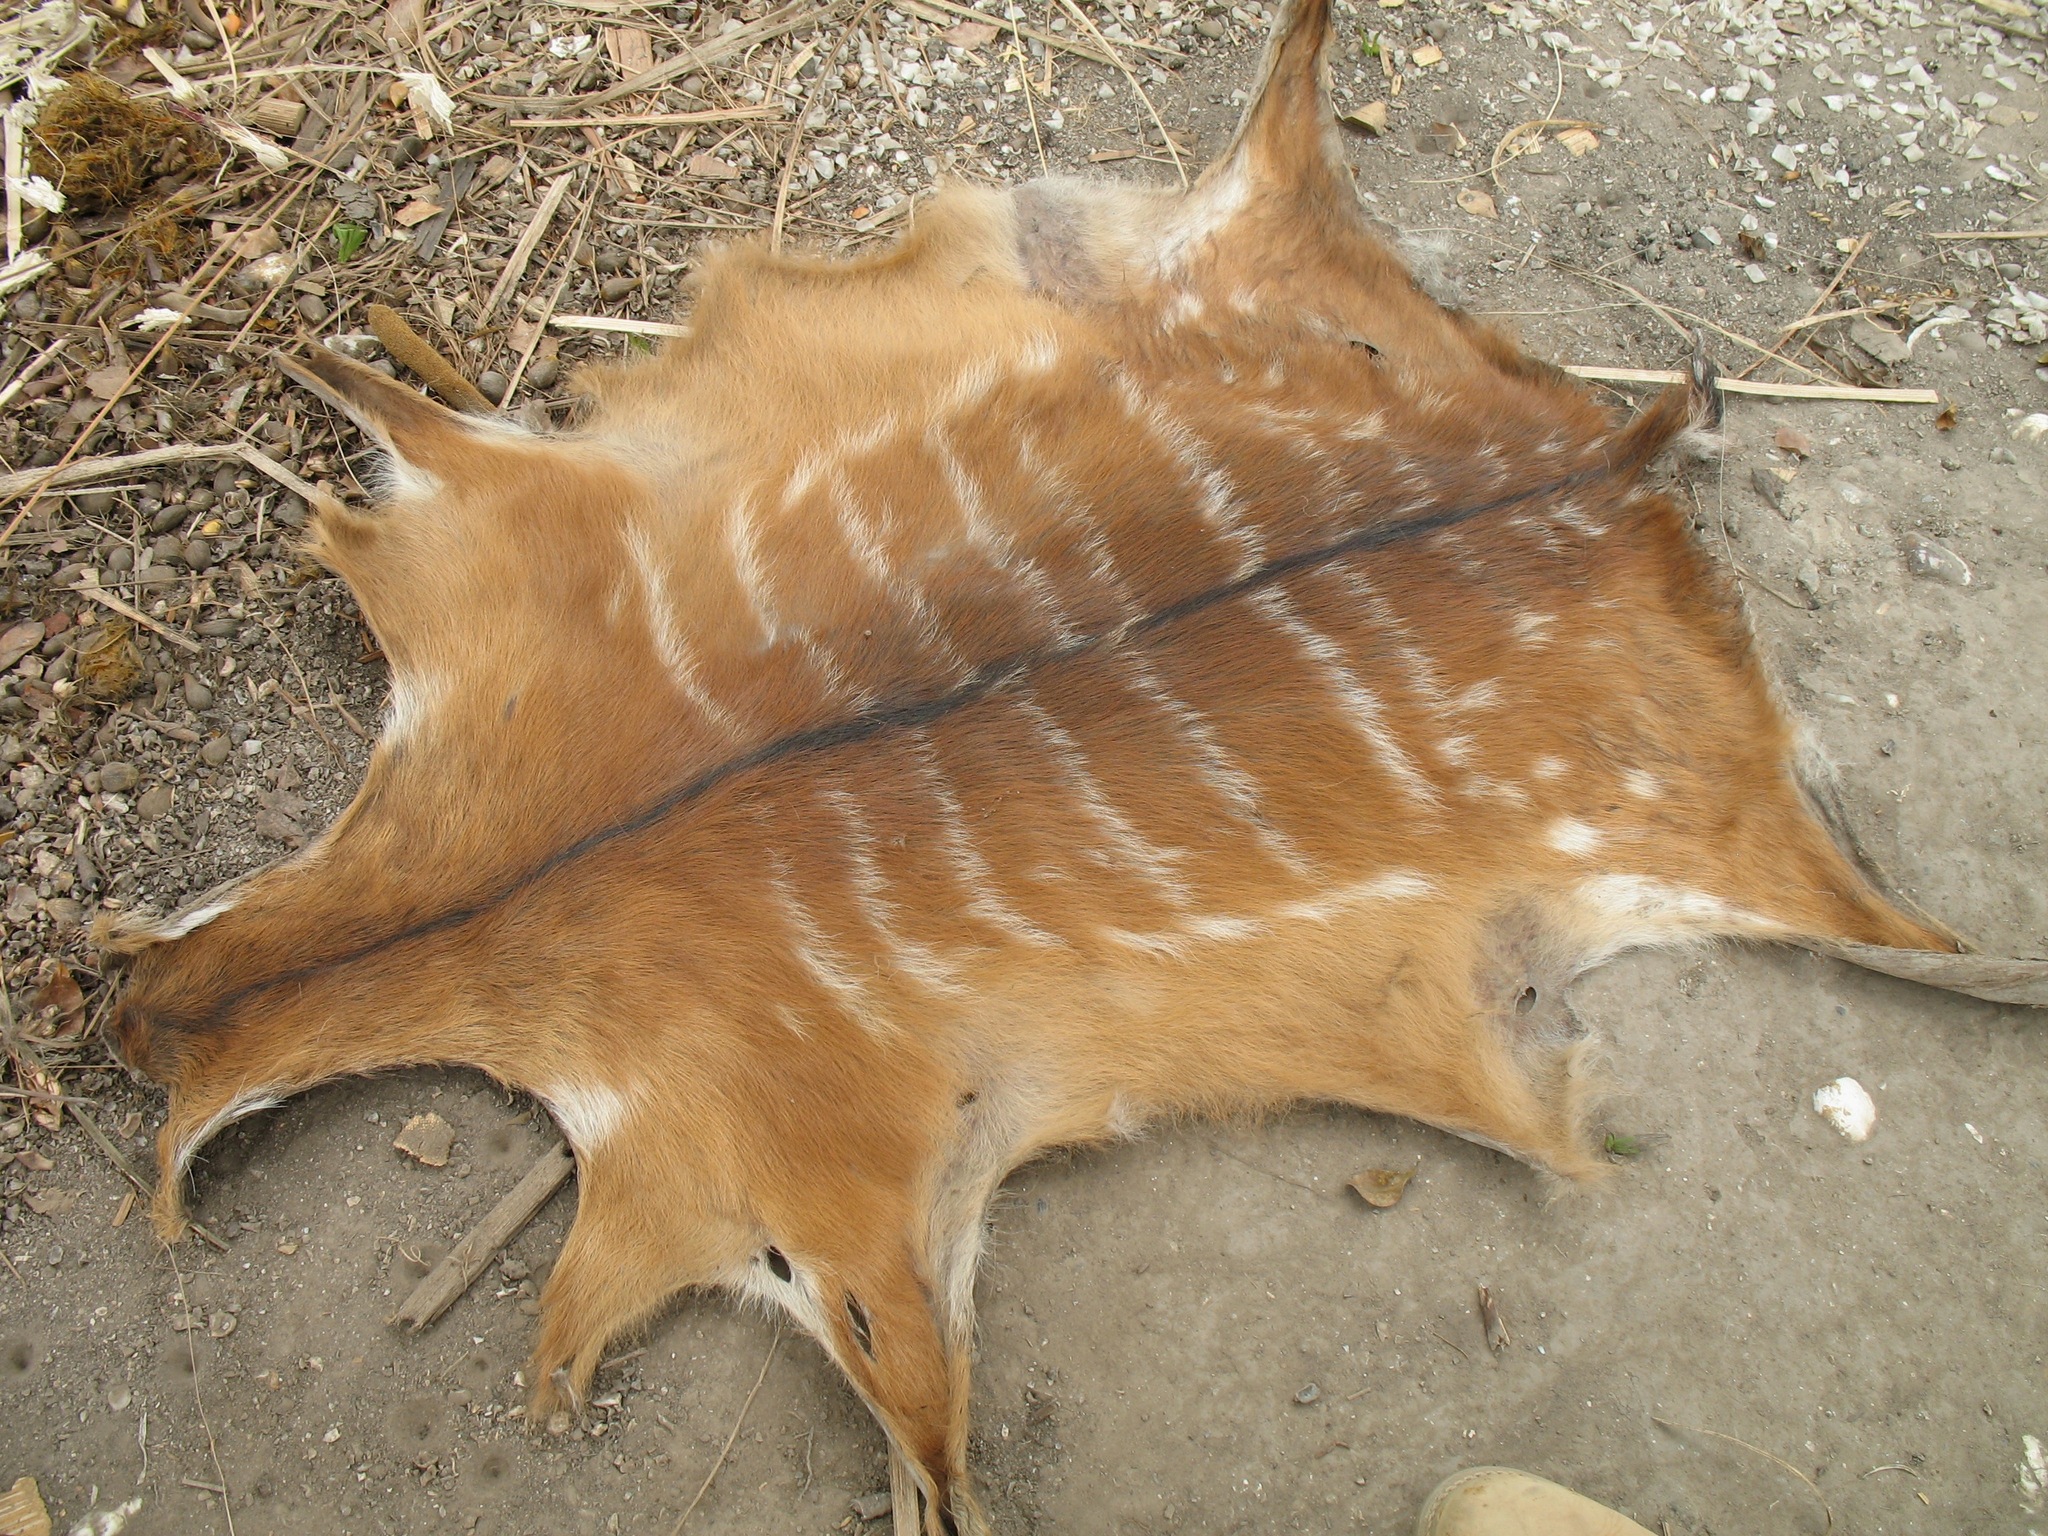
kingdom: Animalia
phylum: Chordata
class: Mammalia
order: Artiodactyla
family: Bovidae
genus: Tragelaphus
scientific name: Tragelaphus spekii
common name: Sitatunga
